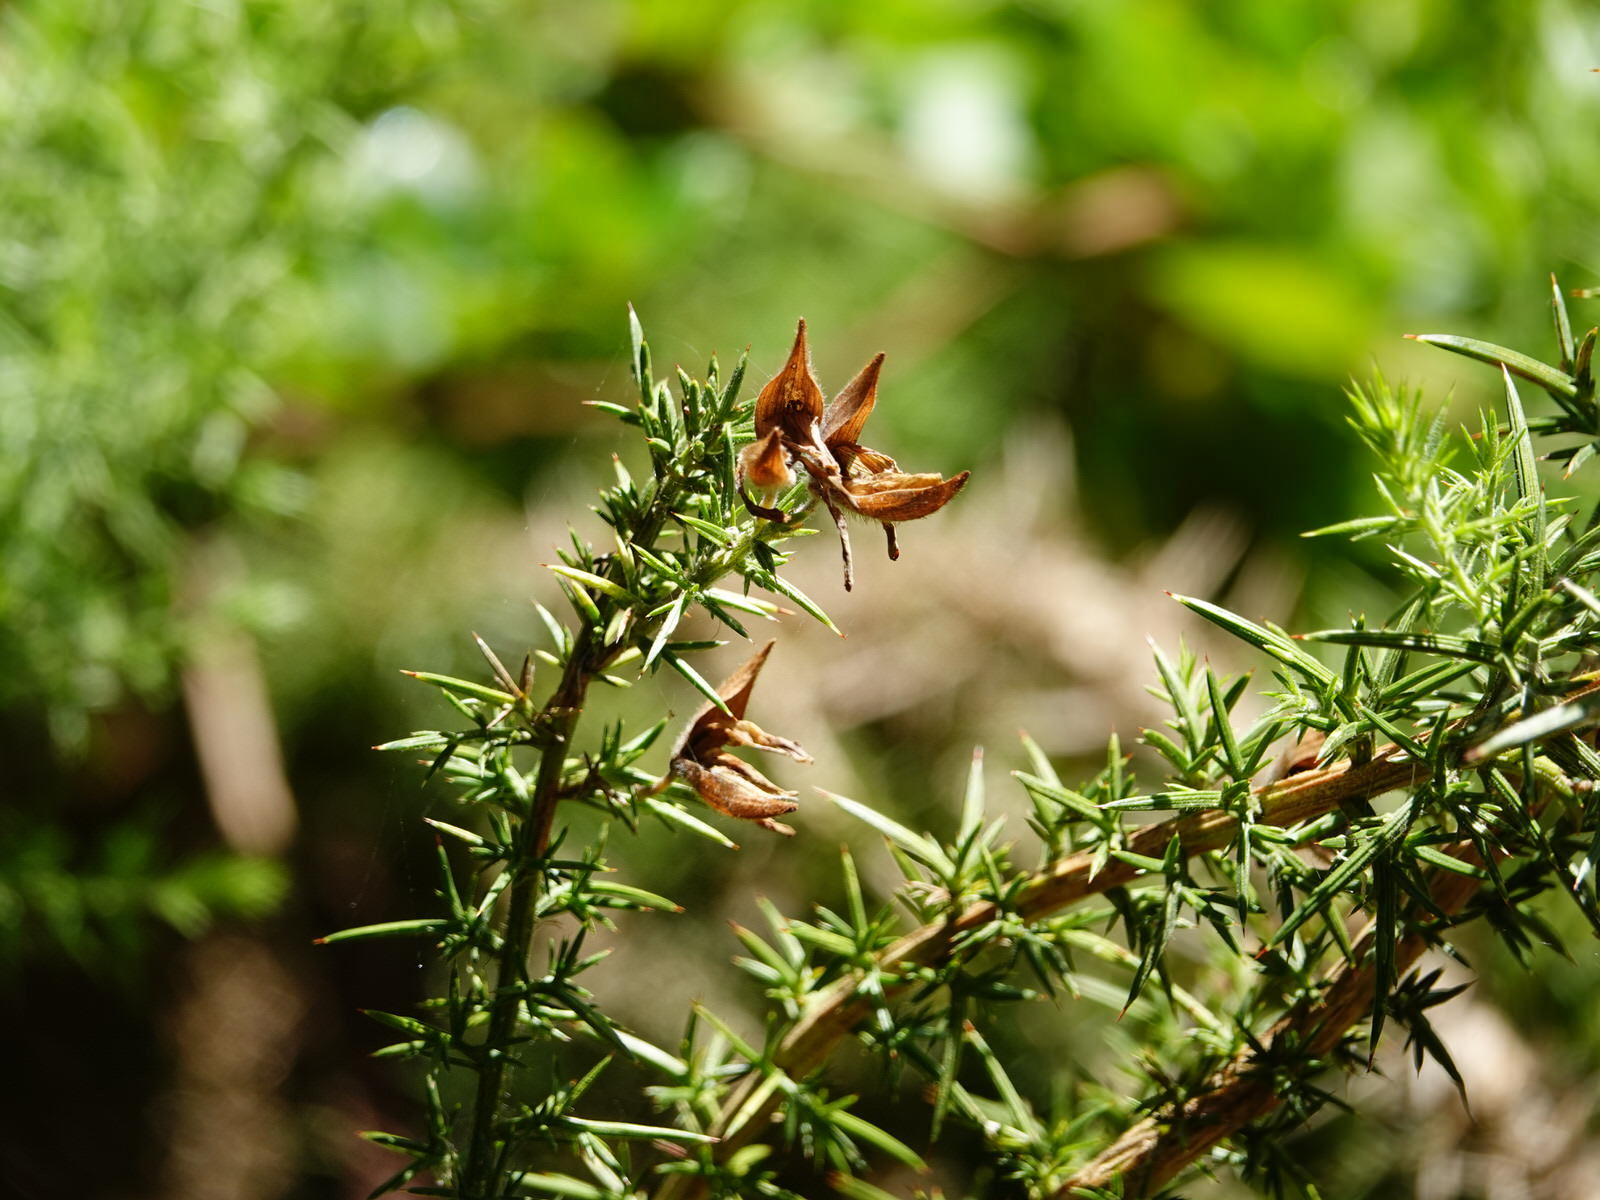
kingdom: Plantae
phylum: Tracheophyta
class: Magnoliopsida
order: Fabales
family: Fabaceae
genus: Ulex
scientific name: Ulex europaeus
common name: Common gorse
